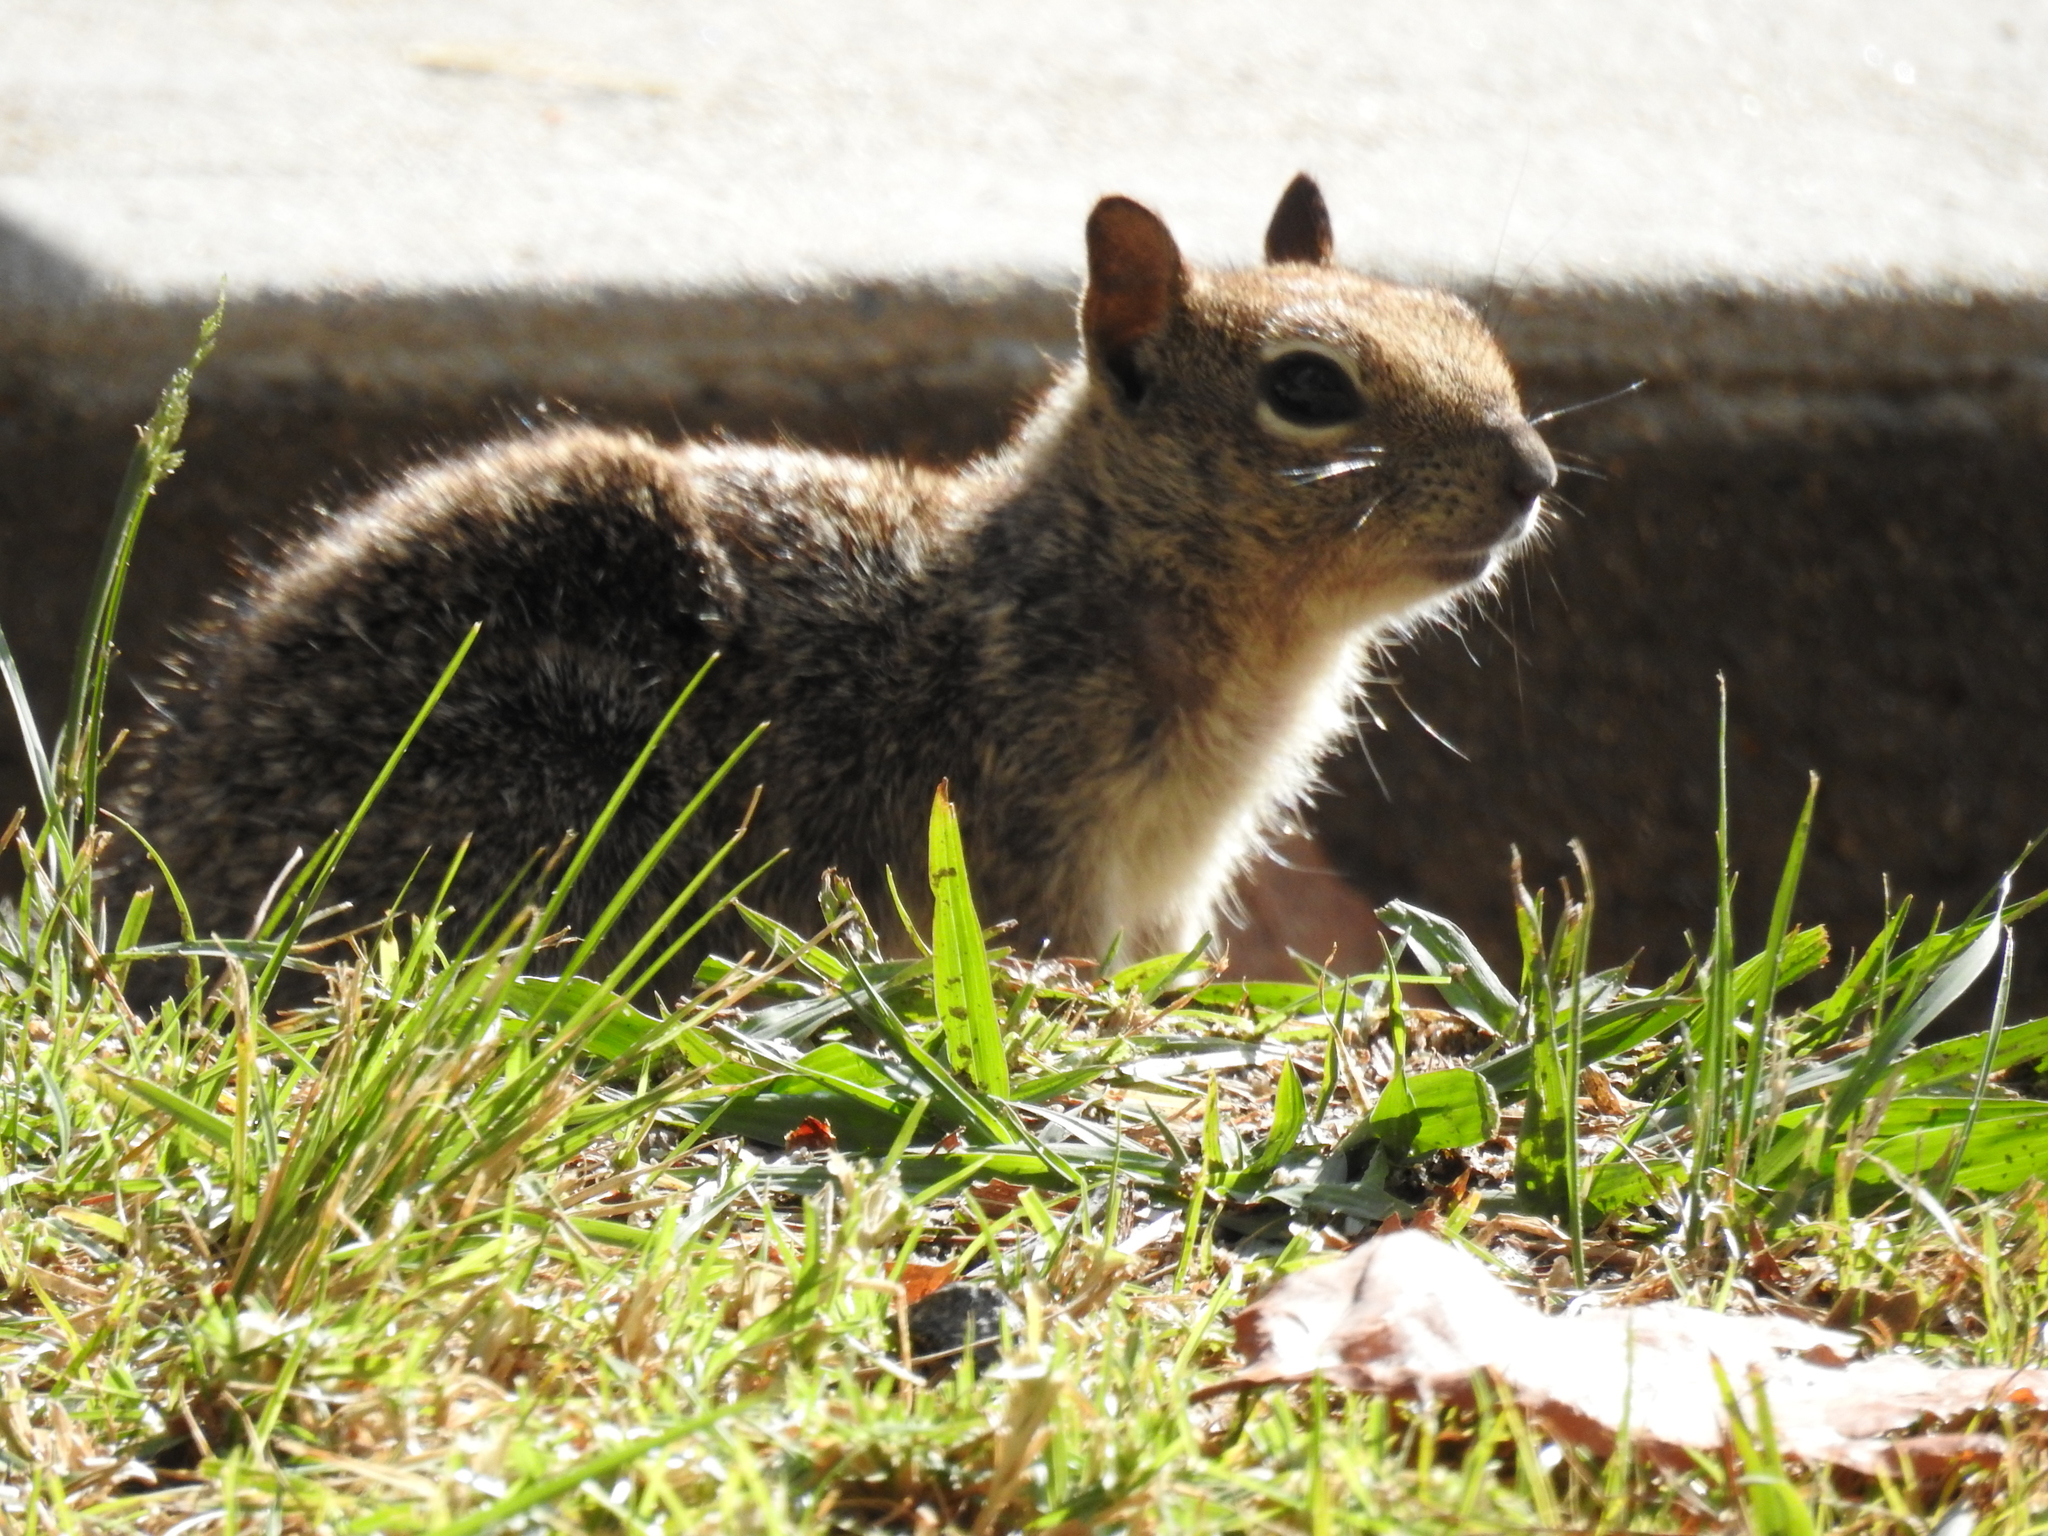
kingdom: Animalia
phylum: Chordata
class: Mammalia
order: Rodentia
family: Sciuridae
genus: Otospermophilus
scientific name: Otospermophilus beecheyi
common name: California ground squirrel
